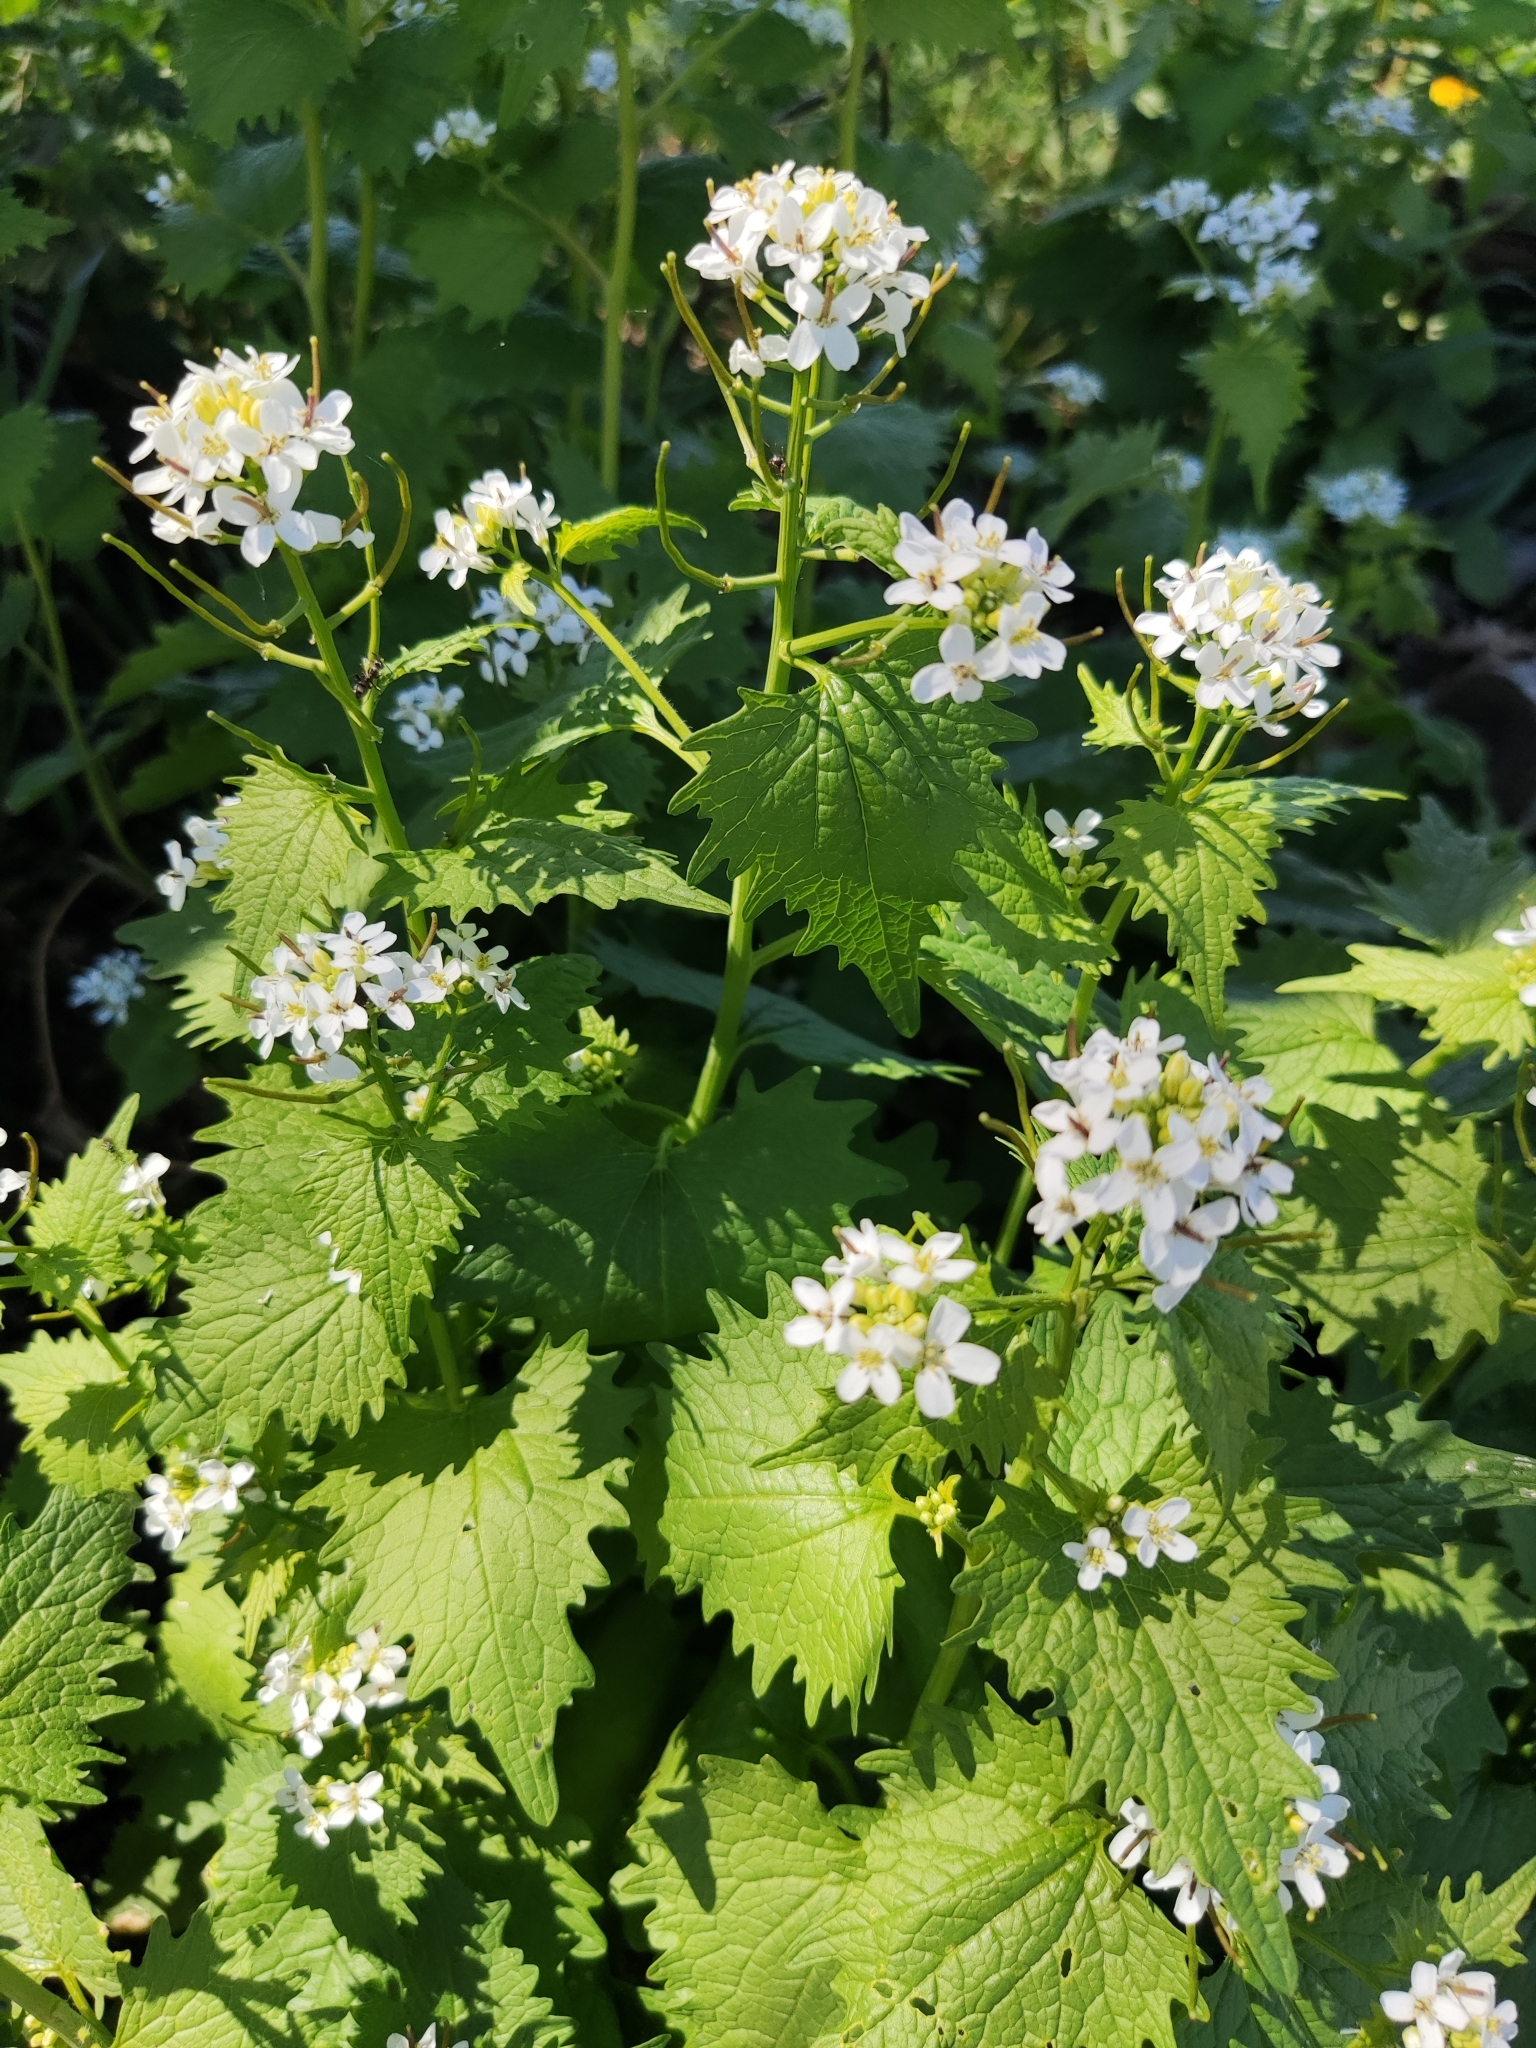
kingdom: Plantae
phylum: Tracheophyta
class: Magnoliopsida
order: Brassicales
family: Brassicaceae
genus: Alliaria
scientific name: Alliaria petiolata
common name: Garlic mustard
